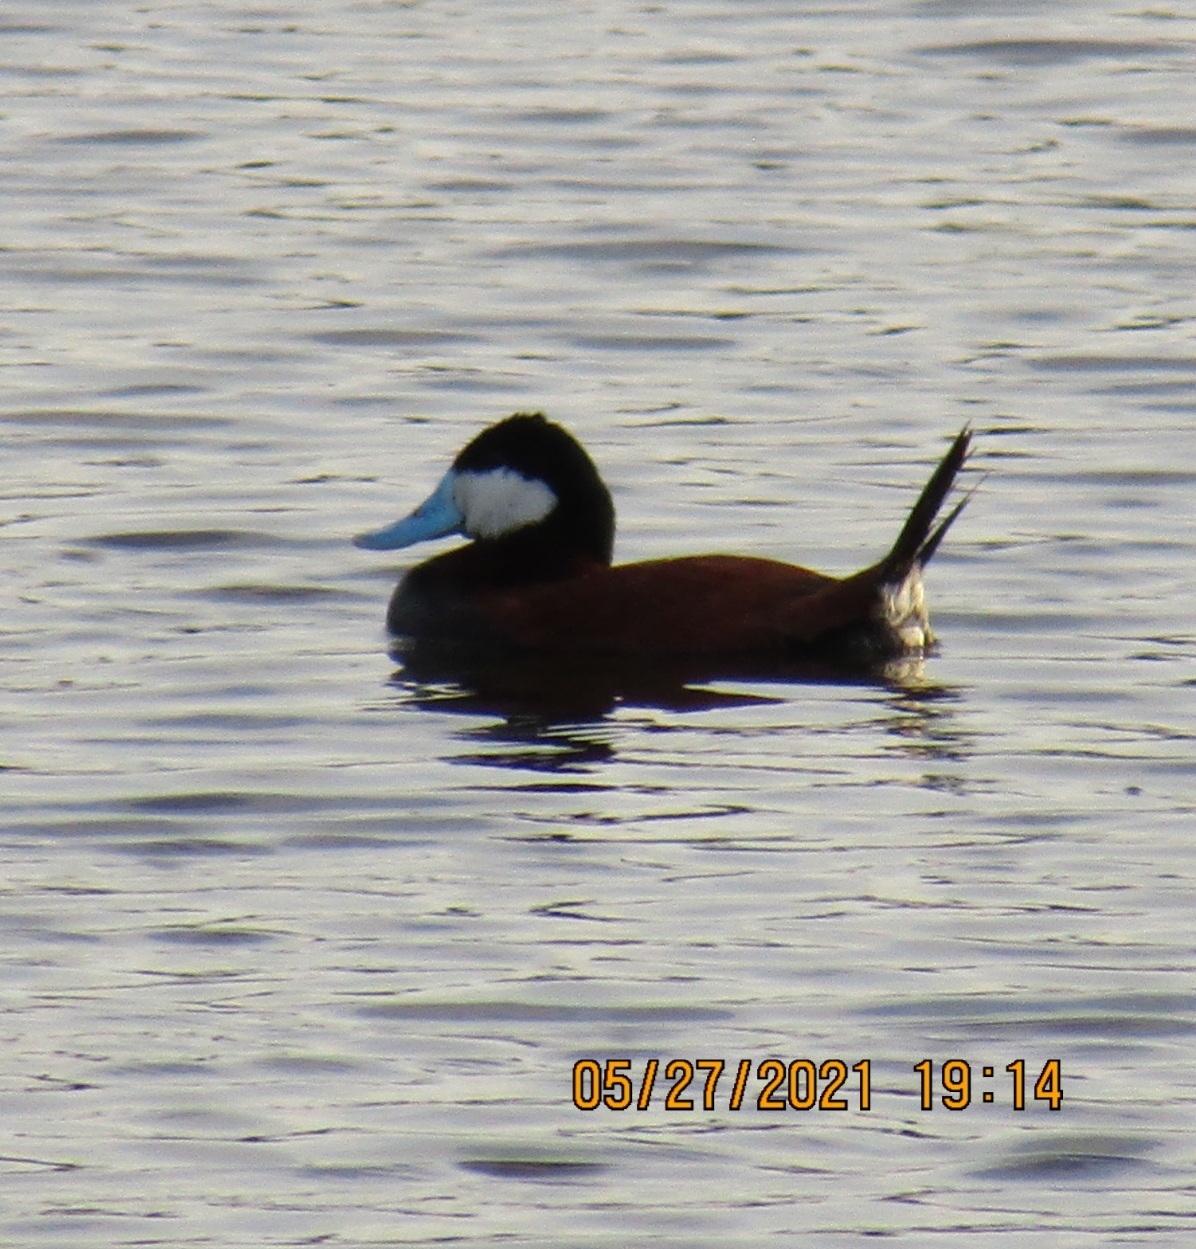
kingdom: Animalia
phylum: Chordata
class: Aves
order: Anseriformes
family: Anatidae
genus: Oxyura
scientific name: Oxyura jamaicensis
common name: Ruddy duck
